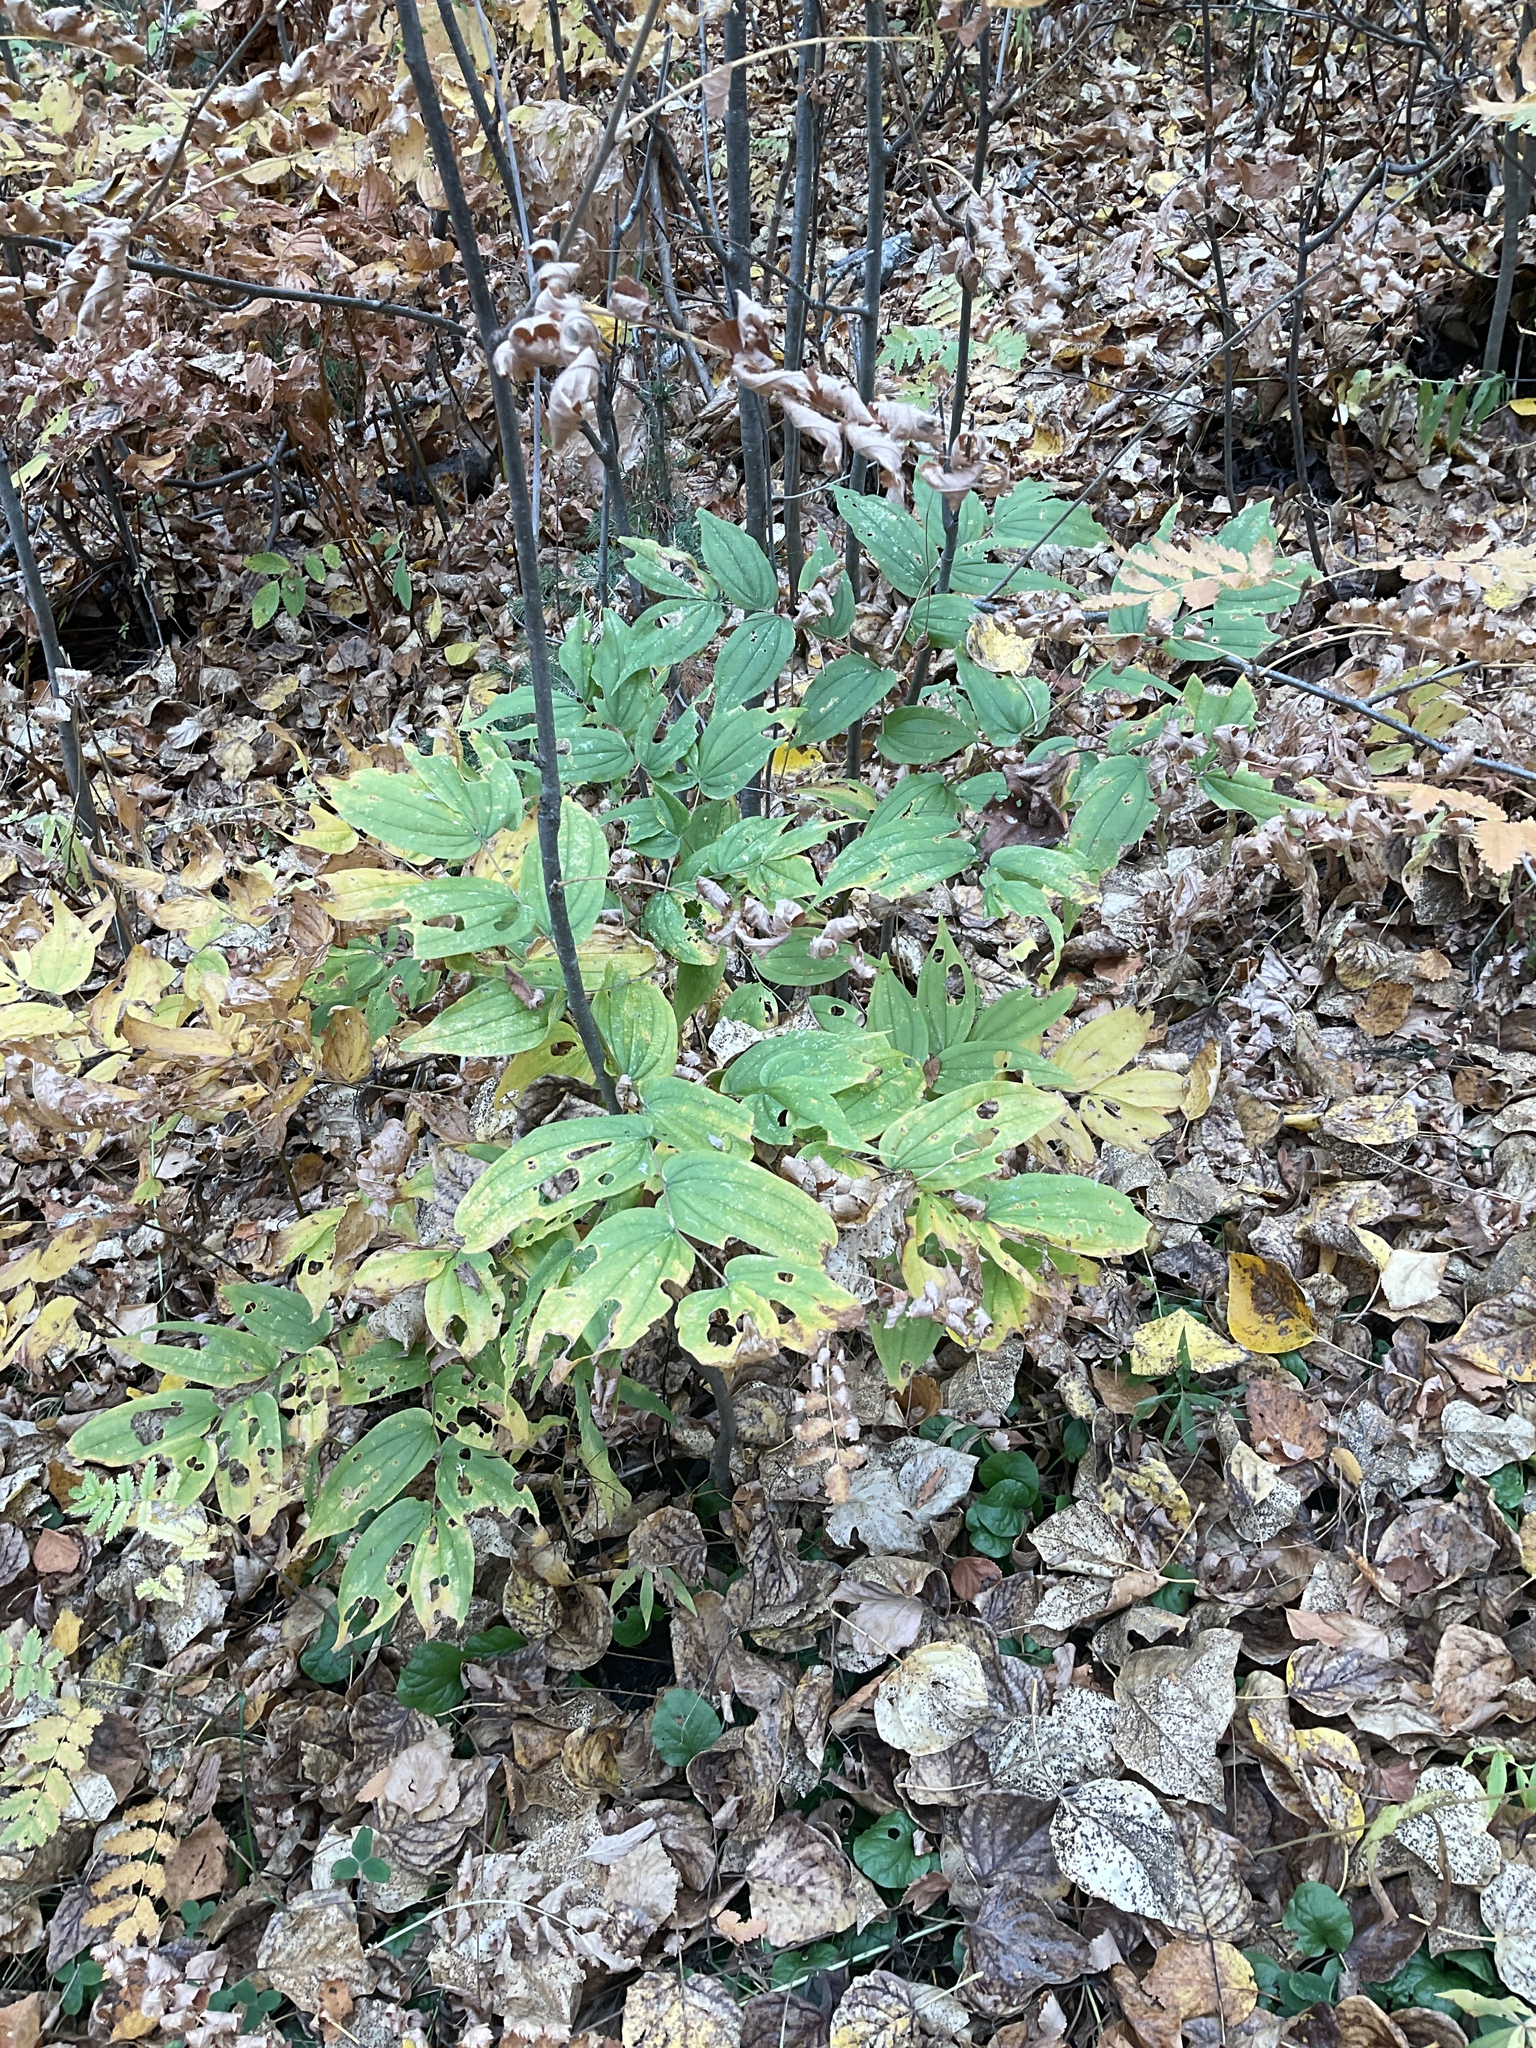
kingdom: Plantae
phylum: Tracheophyta
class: Liliopsida
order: Liliales
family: Liliaceae
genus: Prosartes
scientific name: Prosartes hookeri
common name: Fairy-bells
